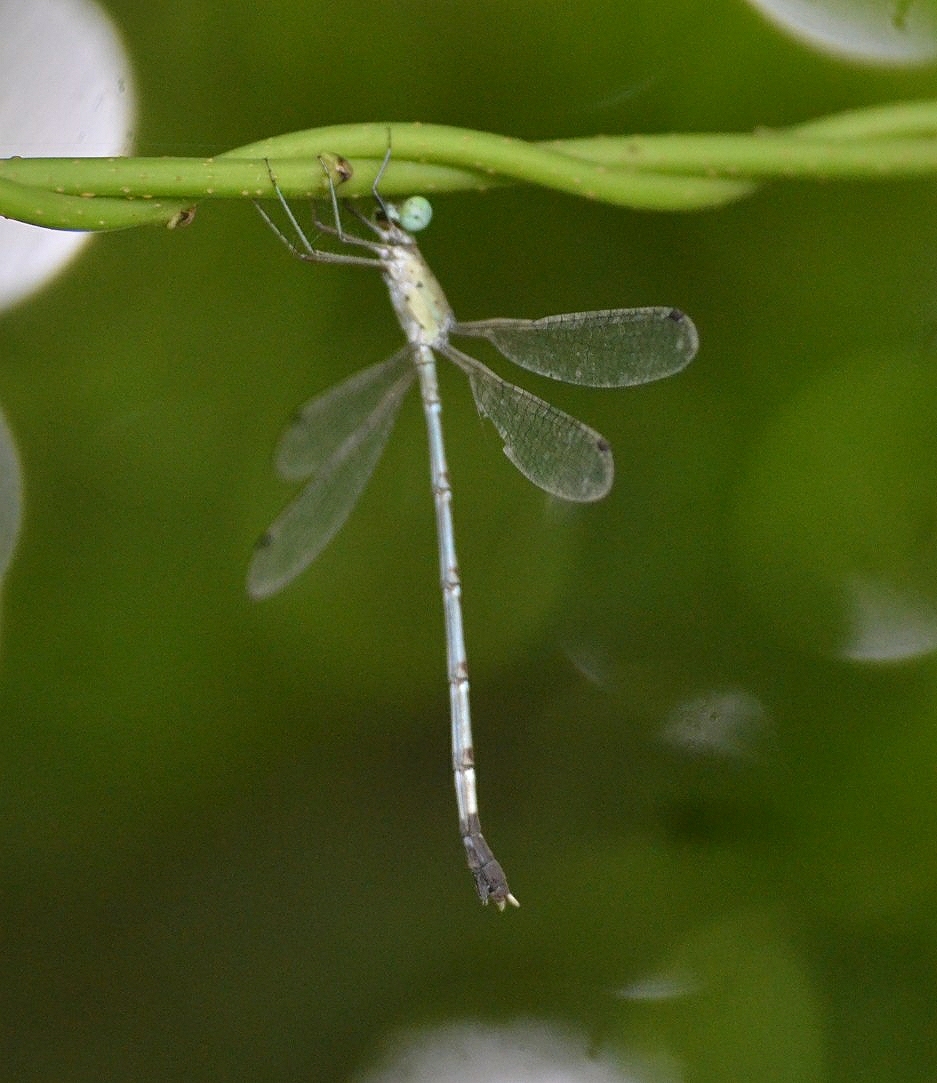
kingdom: Animalia
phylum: Arthropoda
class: Insecta
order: Odonata
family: Lestidae
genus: Platylestes
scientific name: Platylestes platystylus
